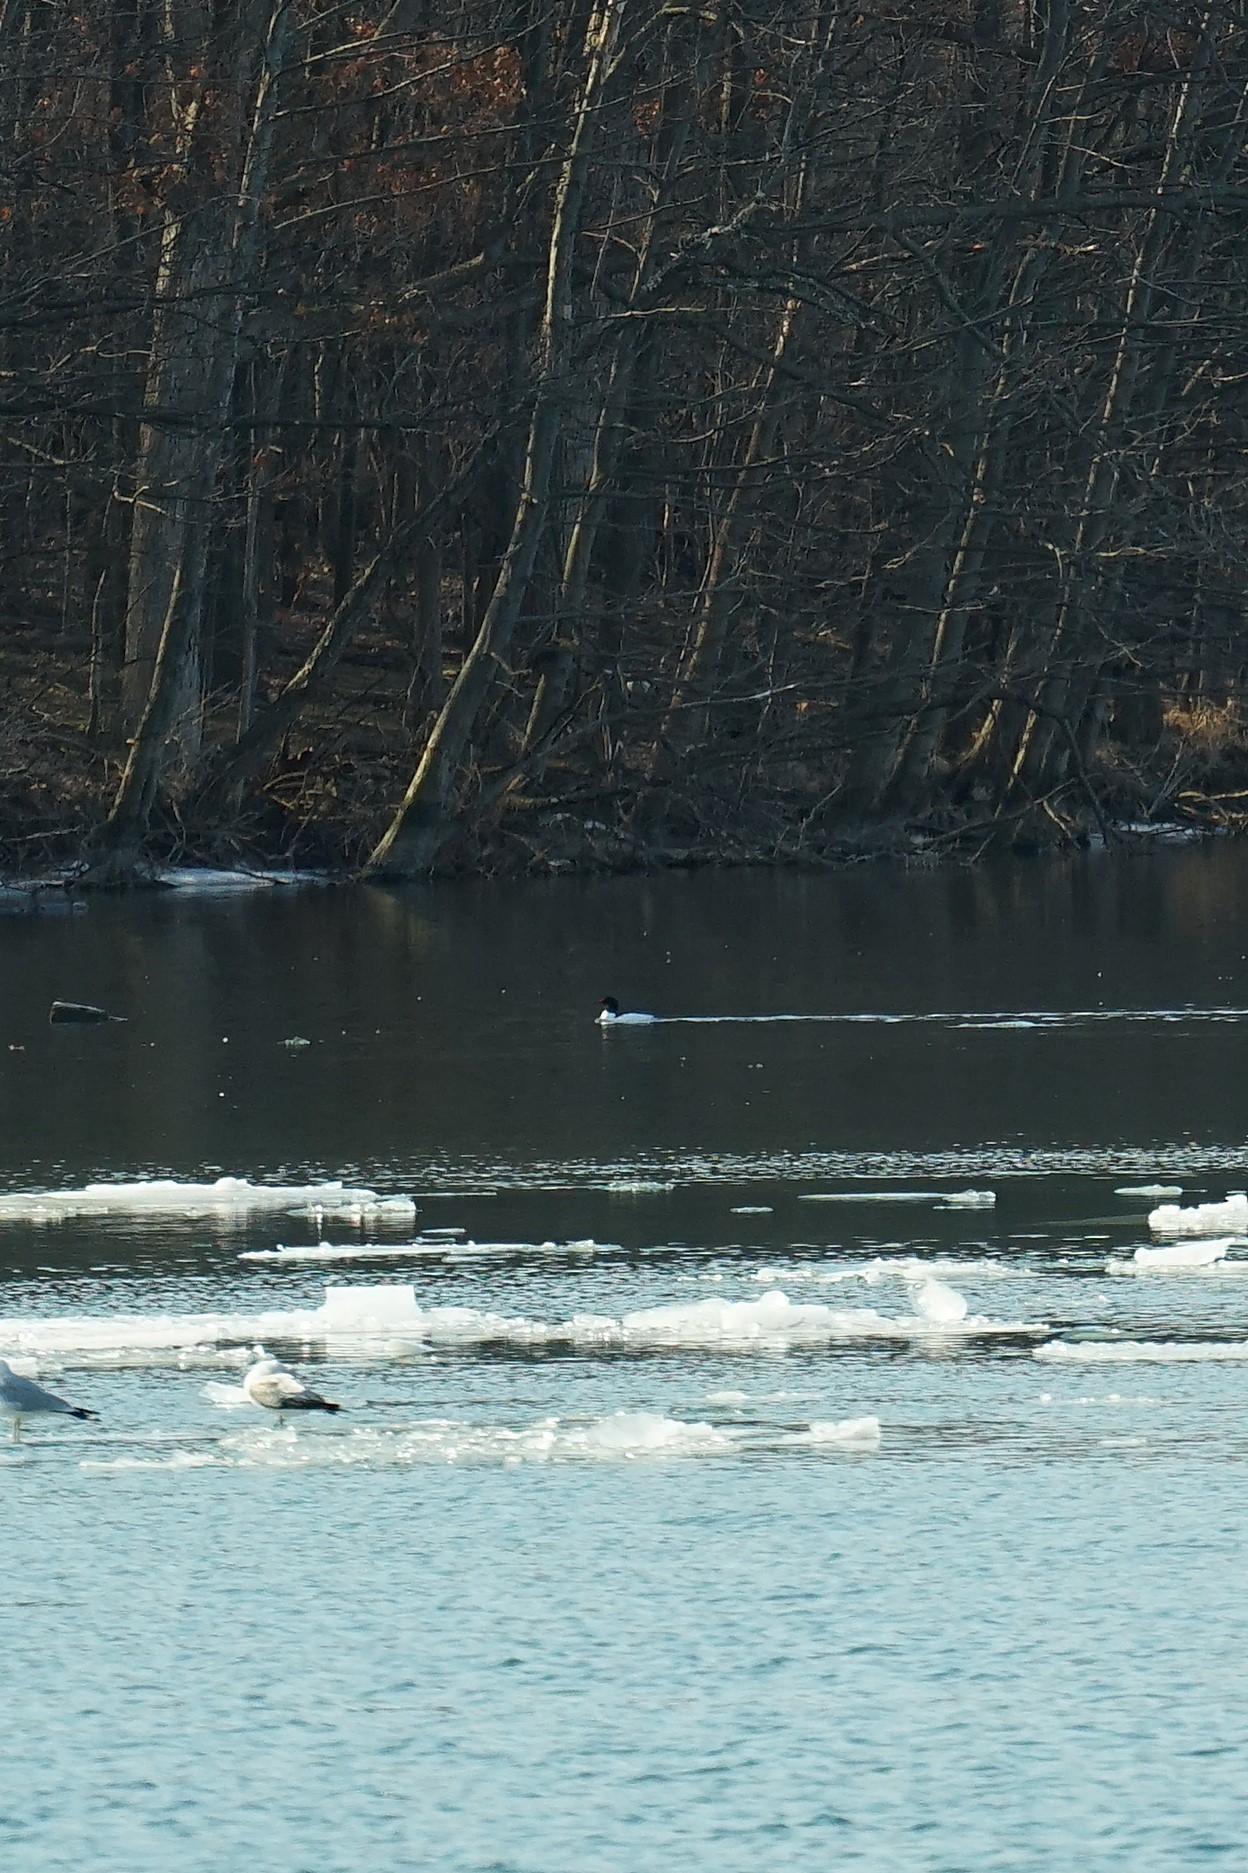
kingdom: Animalia
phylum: Chordata
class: Aves
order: Anseriformes
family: Anatidae
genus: Mergus
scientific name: Mergus merganser
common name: Common merganser
